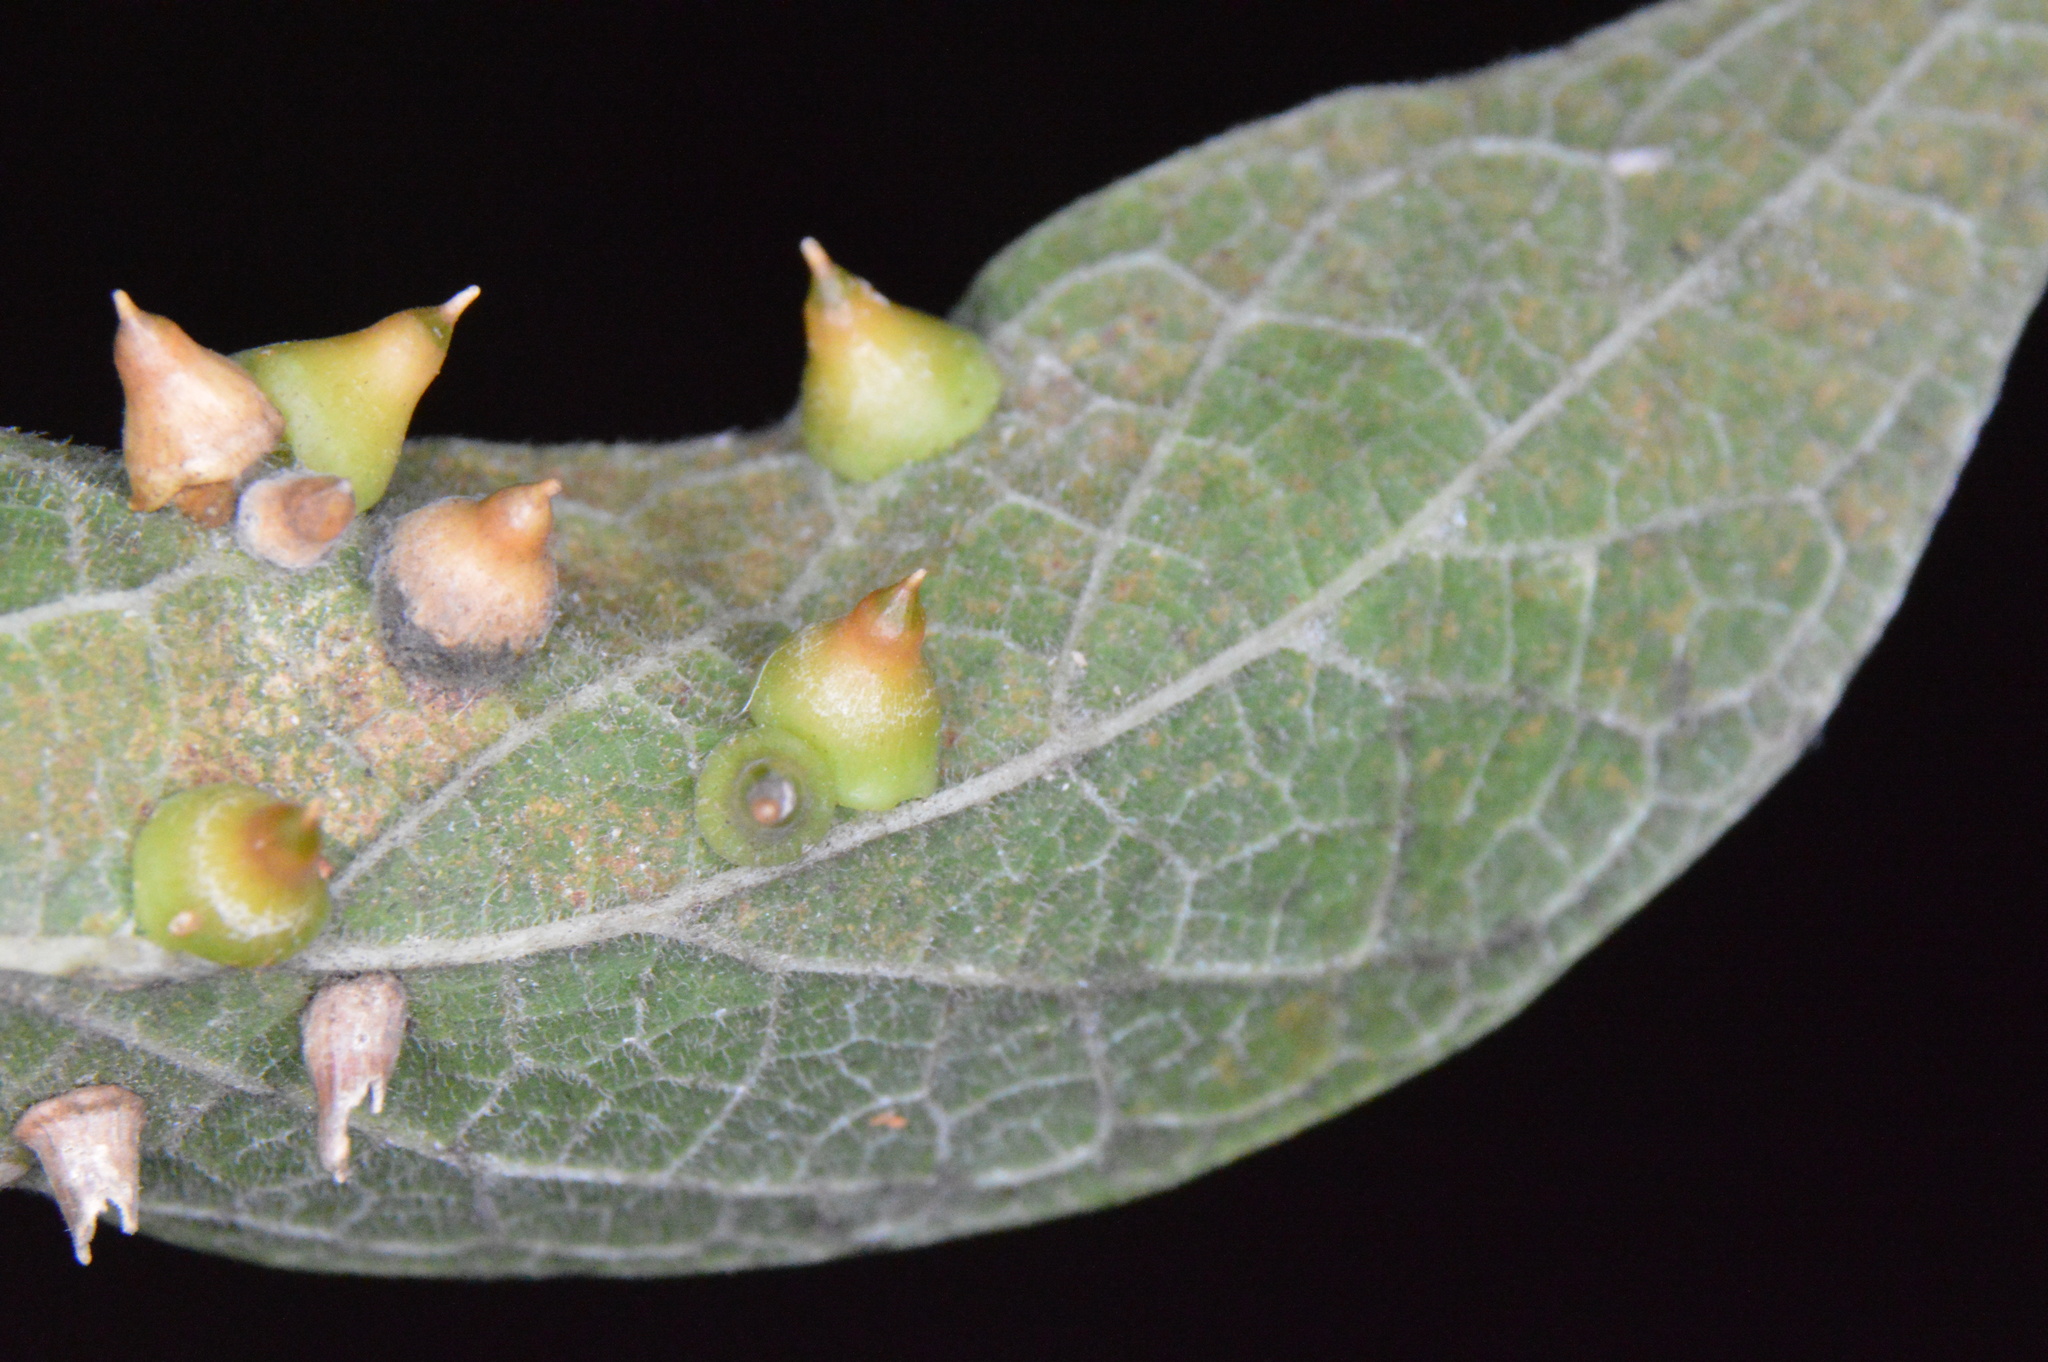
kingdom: Animalia
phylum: Arthropoda
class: Insecta
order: Diptera
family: Cecidomyiidae
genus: Celticecis
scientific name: Celticecis spiniformis
